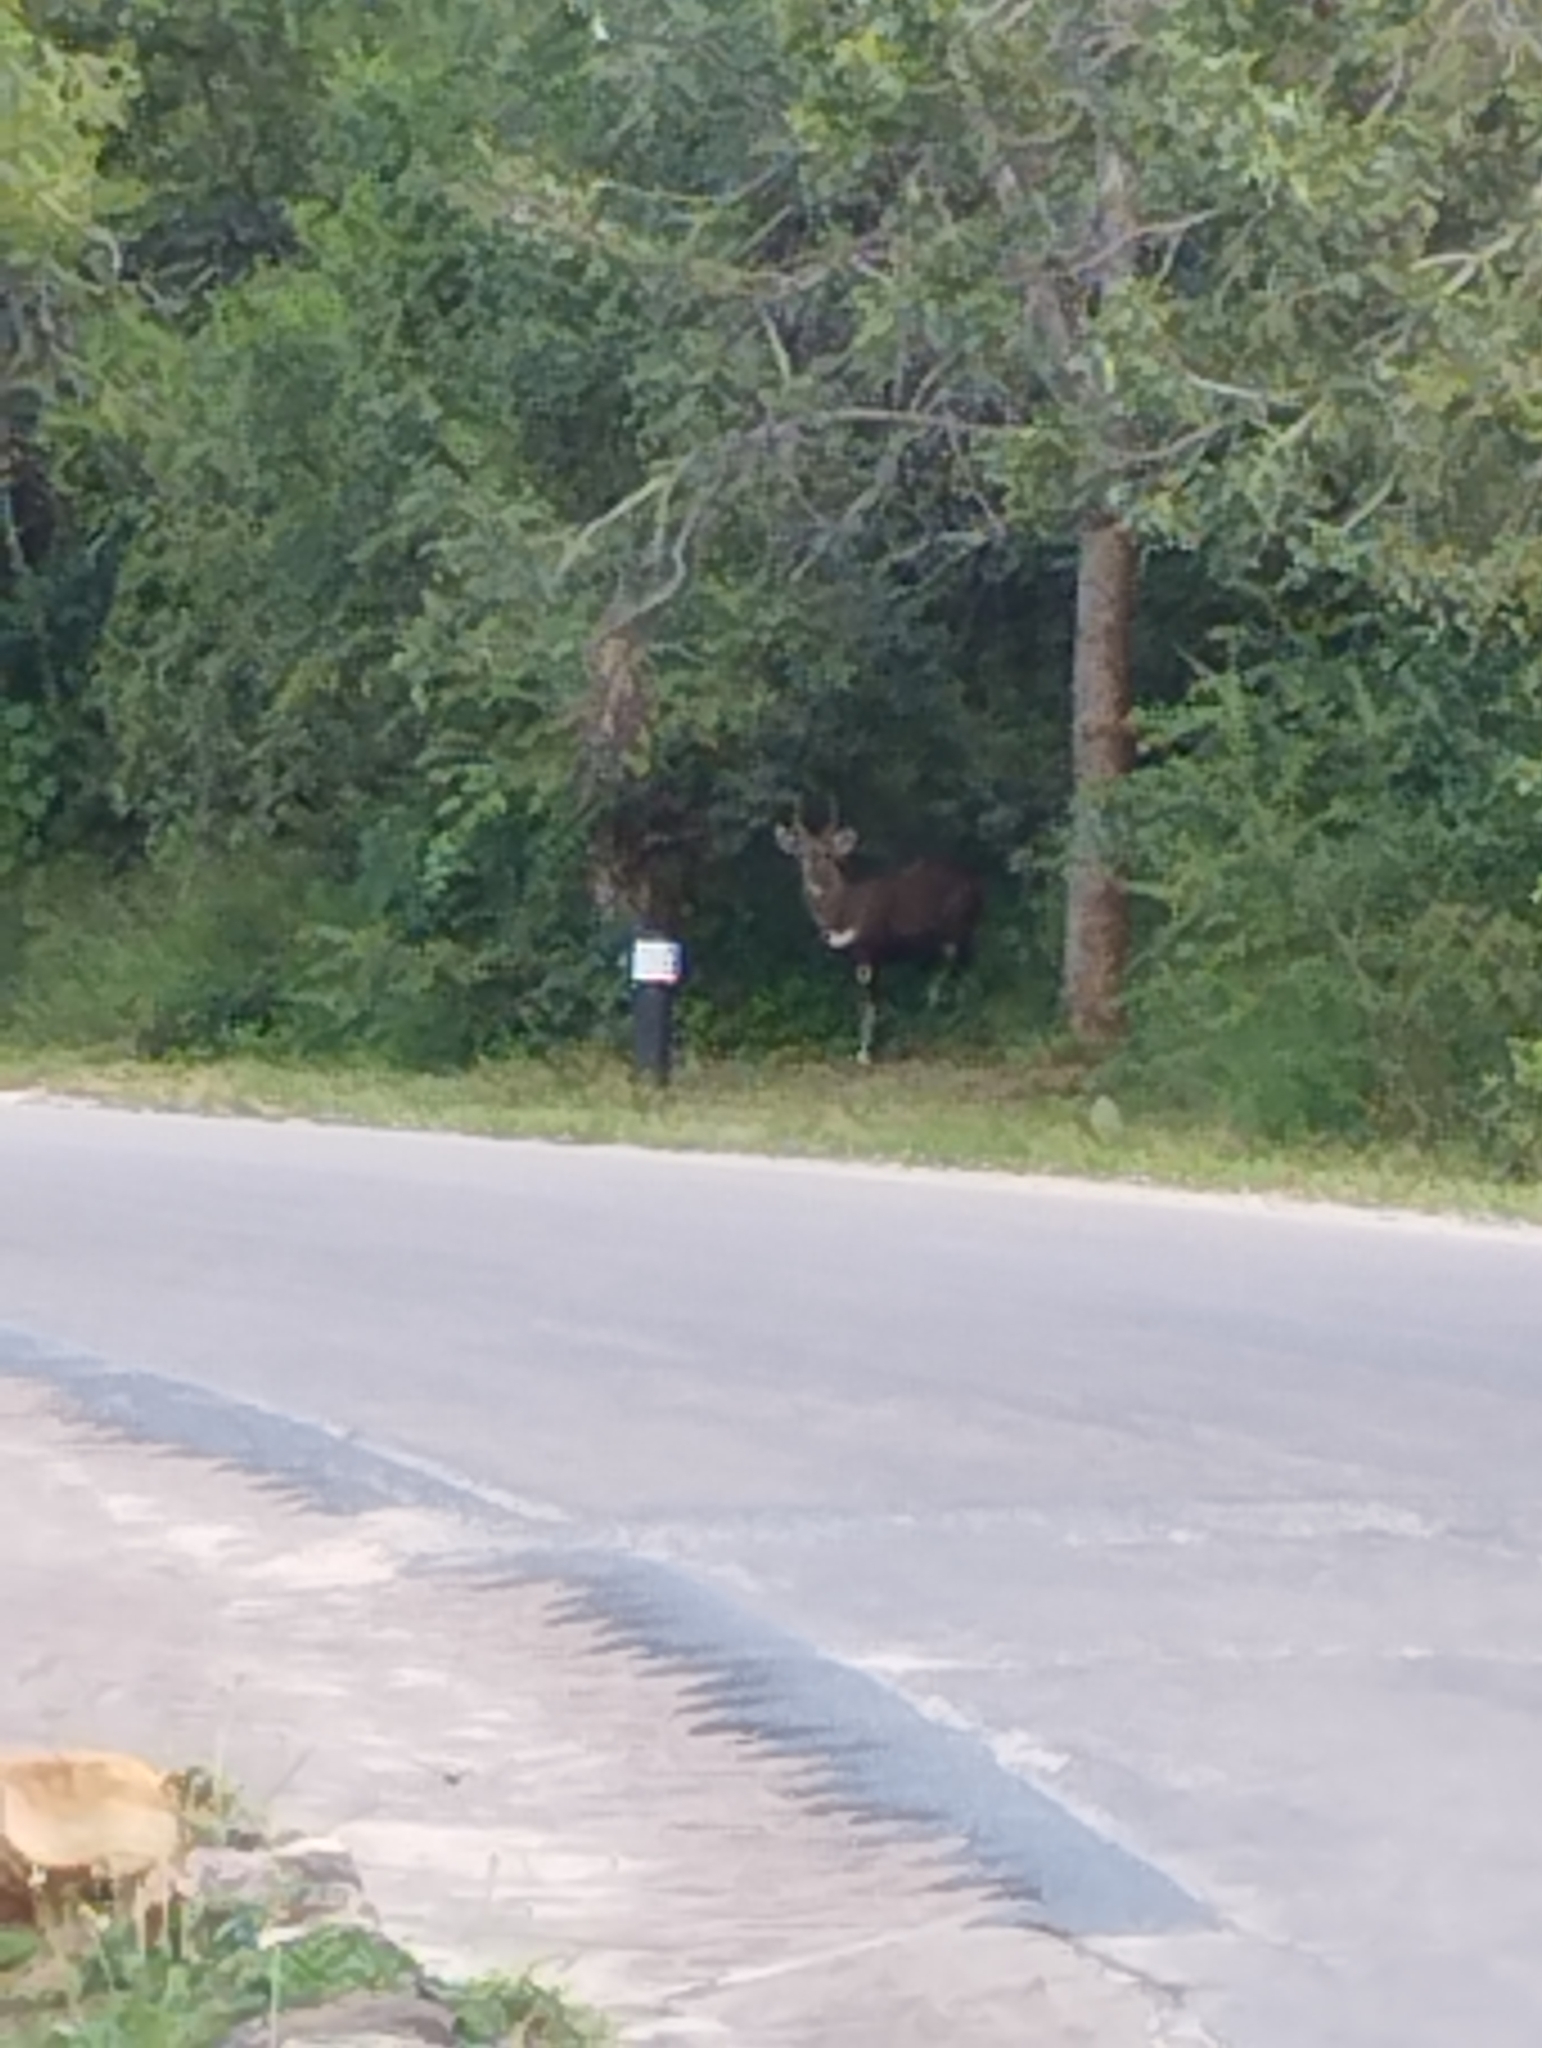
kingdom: Animalia
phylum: Chordata
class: Mammalia
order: Artiodactyla
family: Bovidae
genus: Tragelaphus
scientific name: Tragelaphus scriptus
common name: Bushbuck
